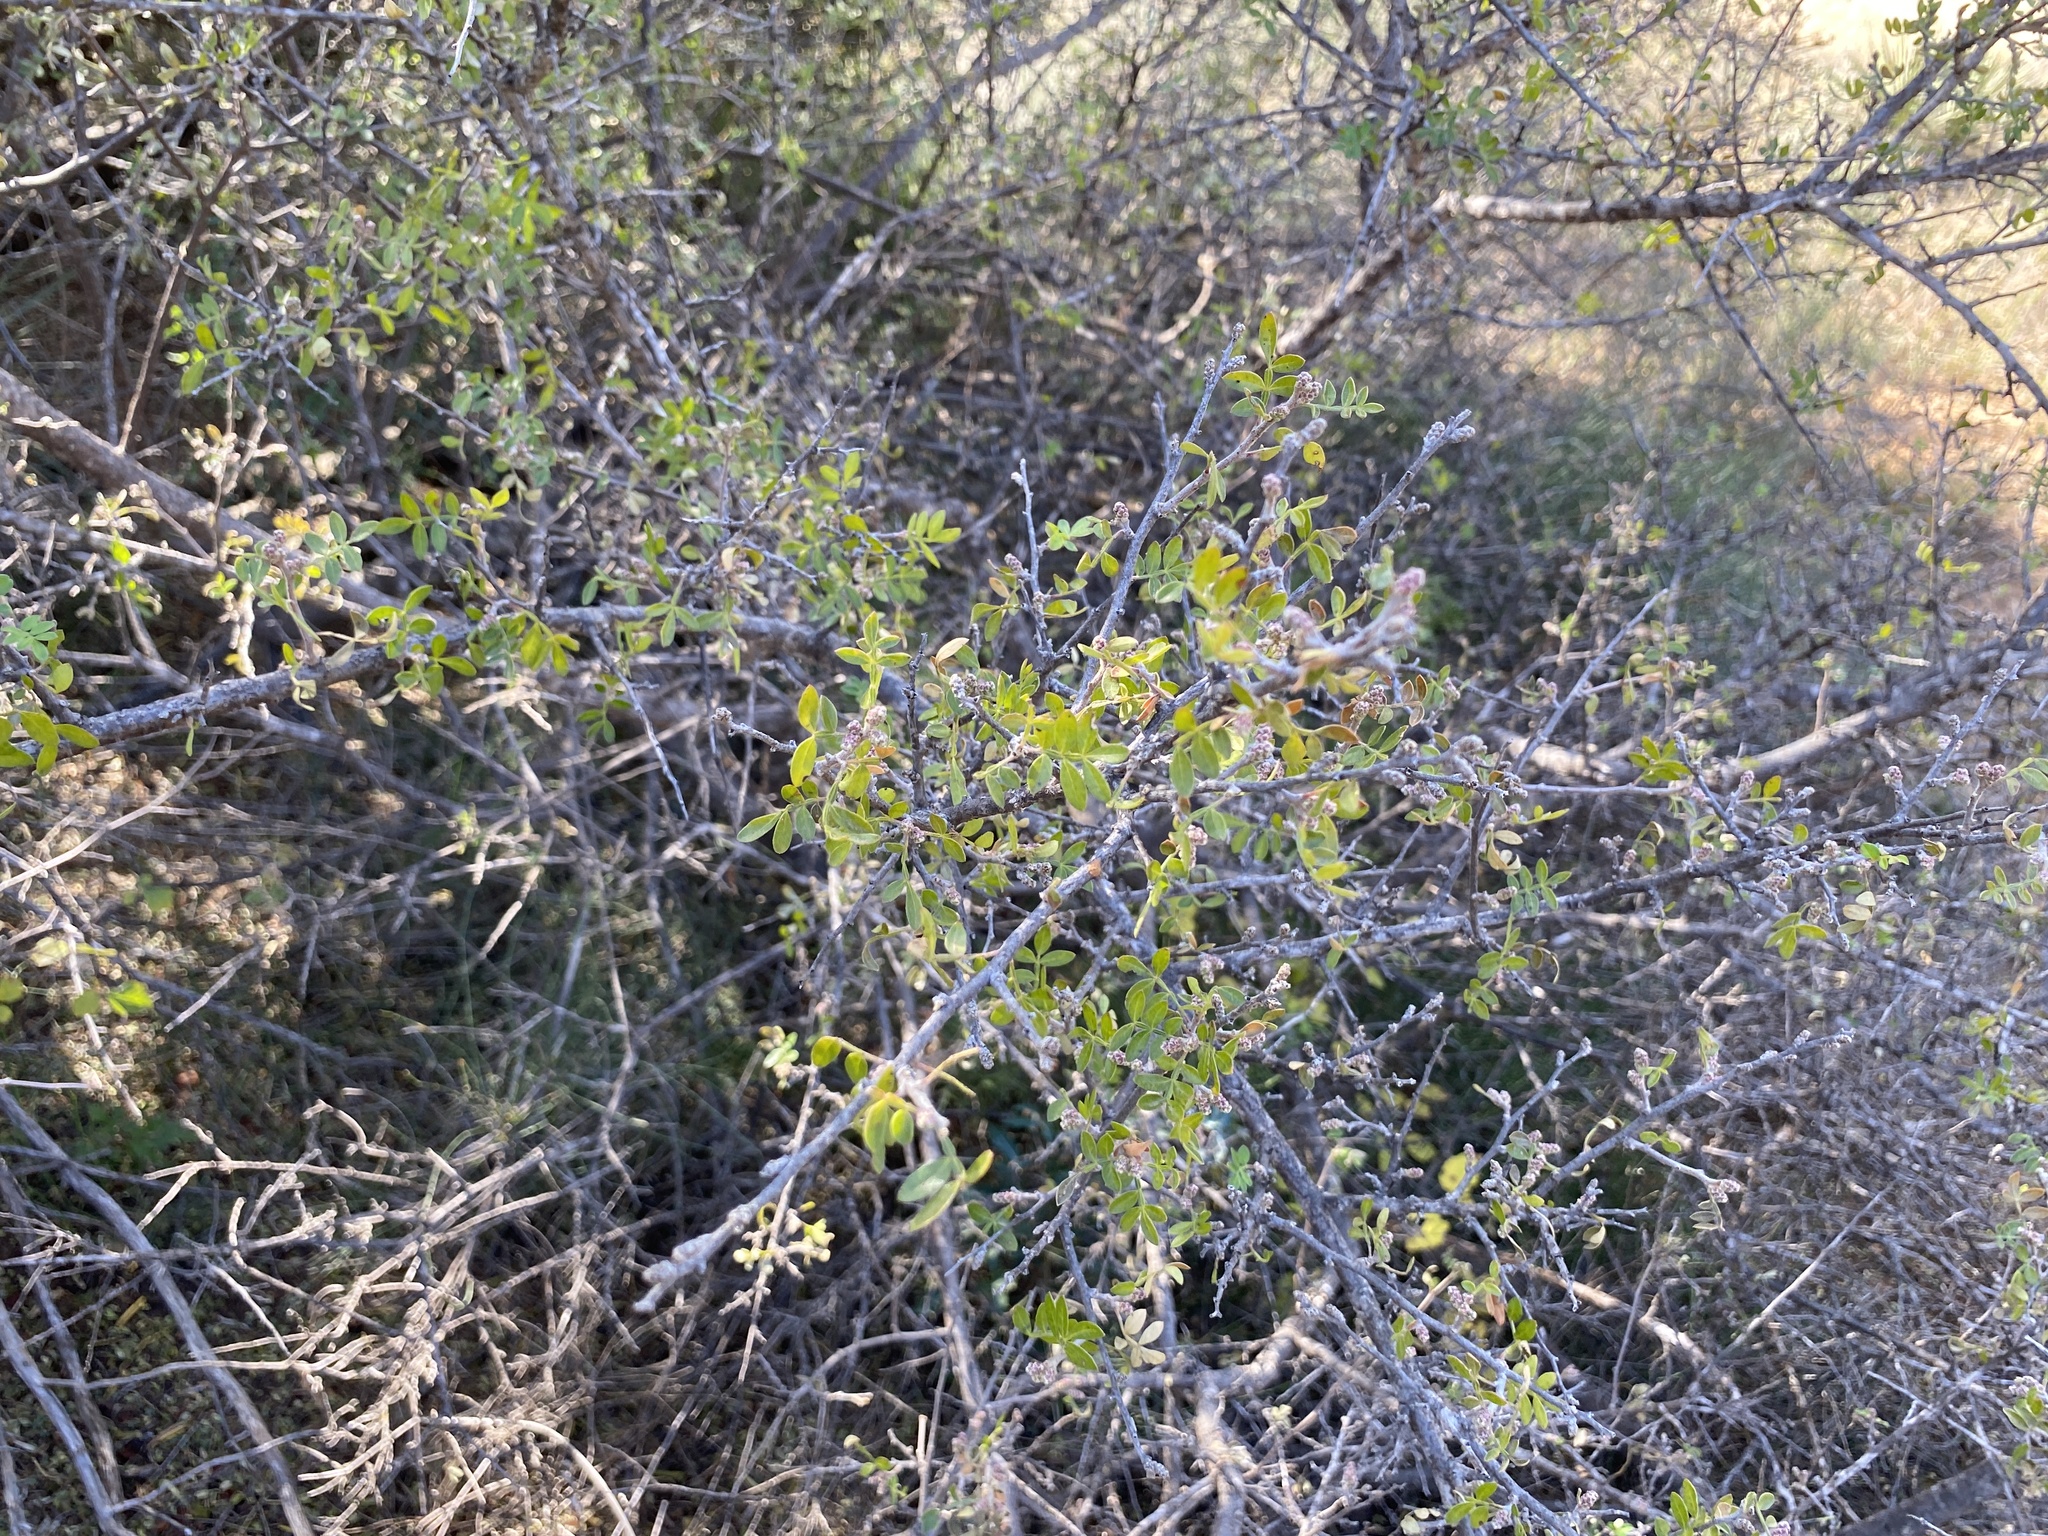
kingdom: Plantae
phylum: Tracheophyta
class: Magnoliopsida
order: Sapindales
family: Anacardiaceae
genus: Rhus
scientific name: Rhus microphylla
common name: Desert sumac
